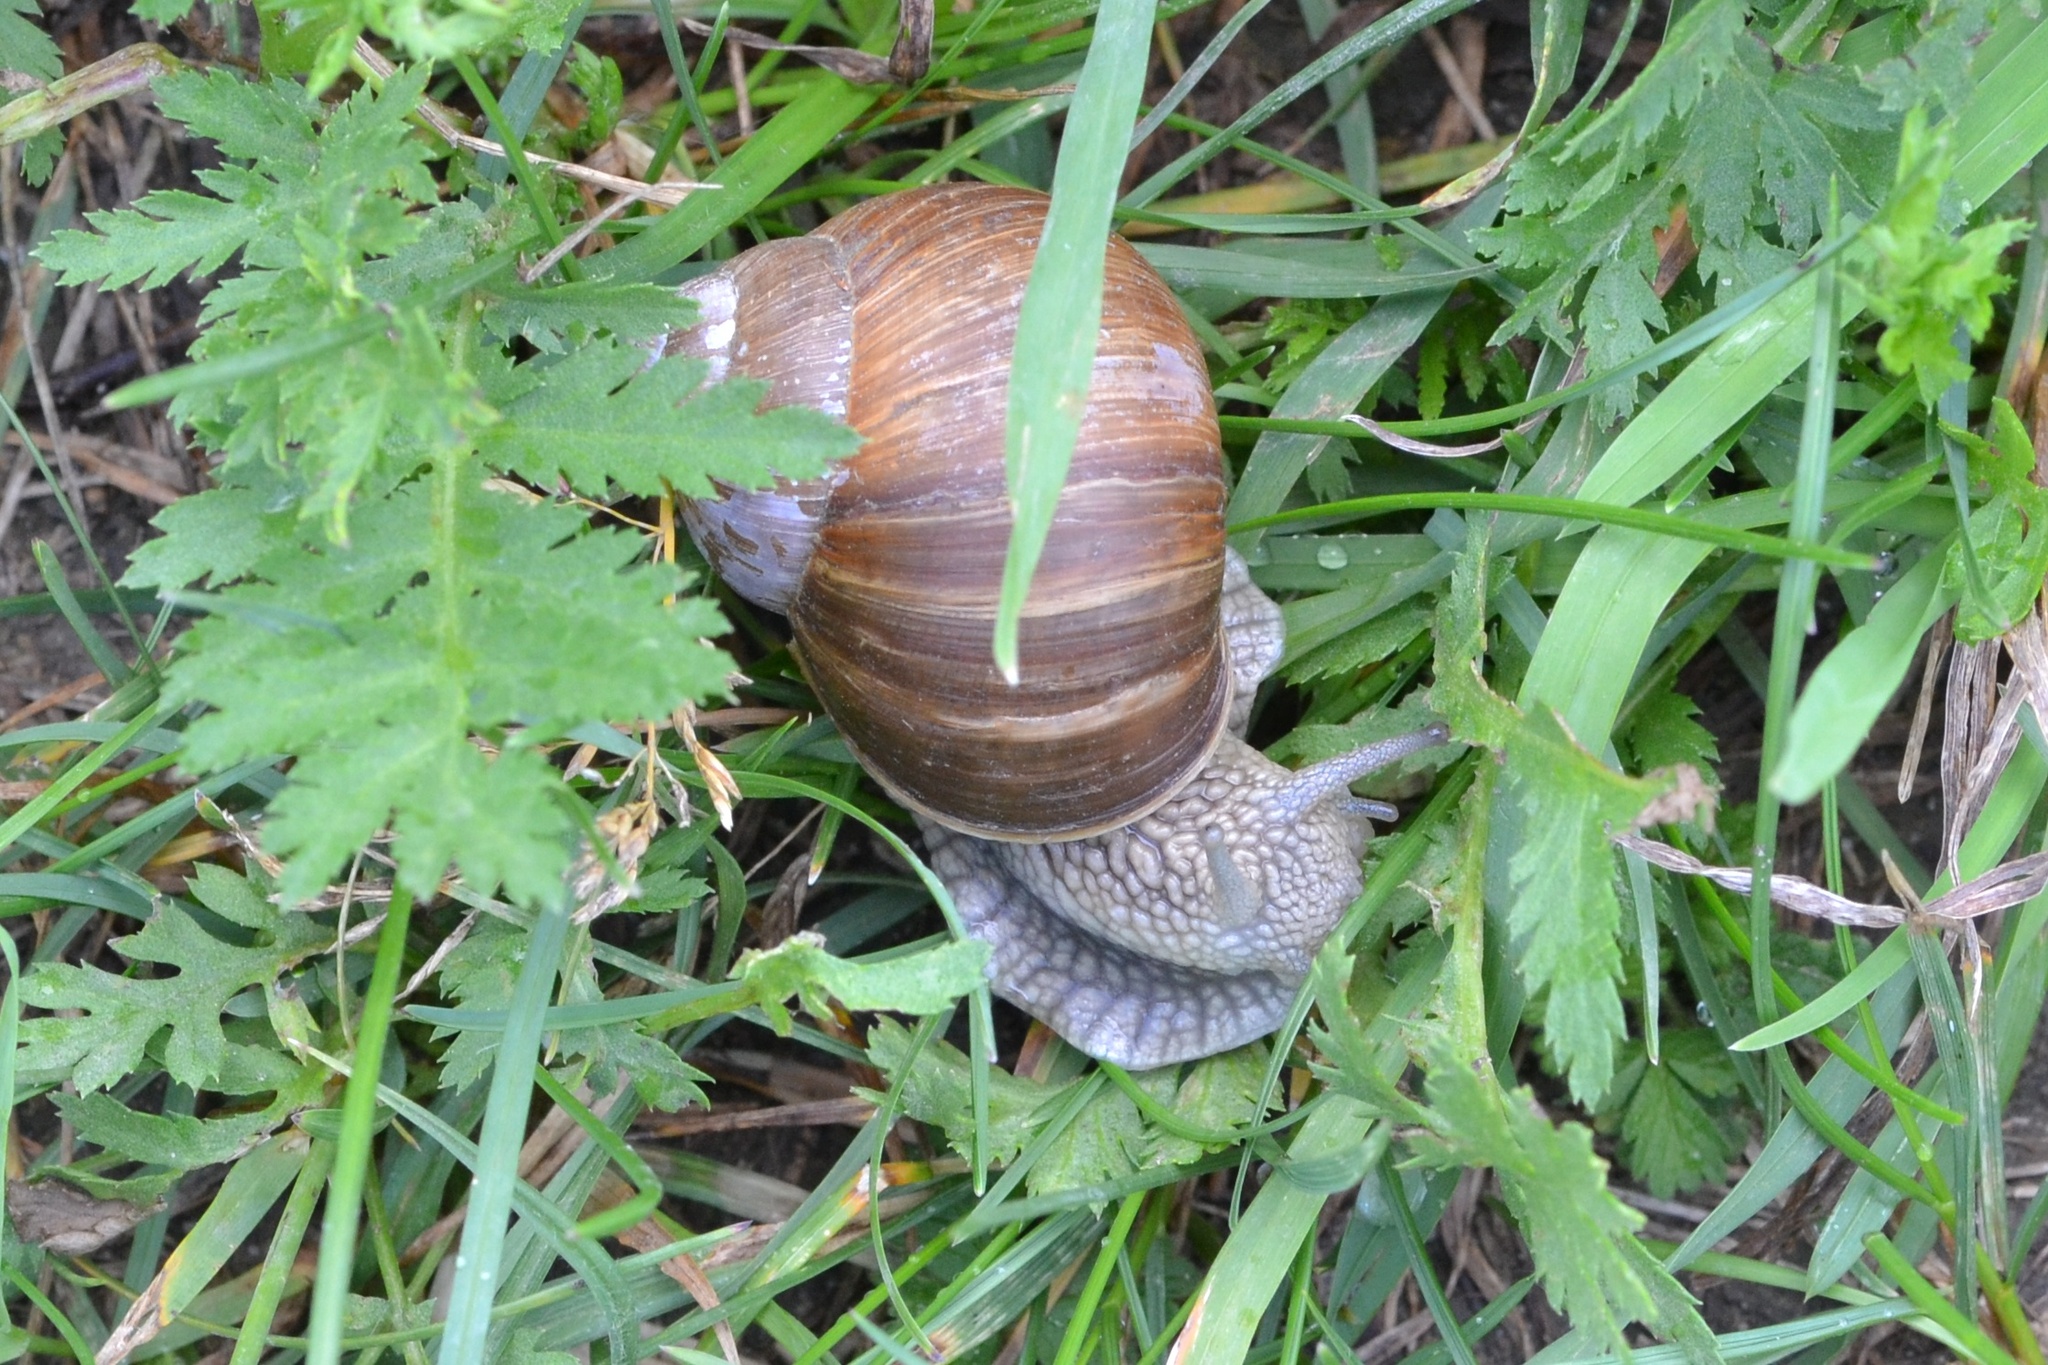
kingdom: Animalia
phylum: Mollusca
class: Gastropoda
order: Stylommatophora
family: Helicidae
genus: Helix
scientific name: Helix pomatia
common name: Roman snail
